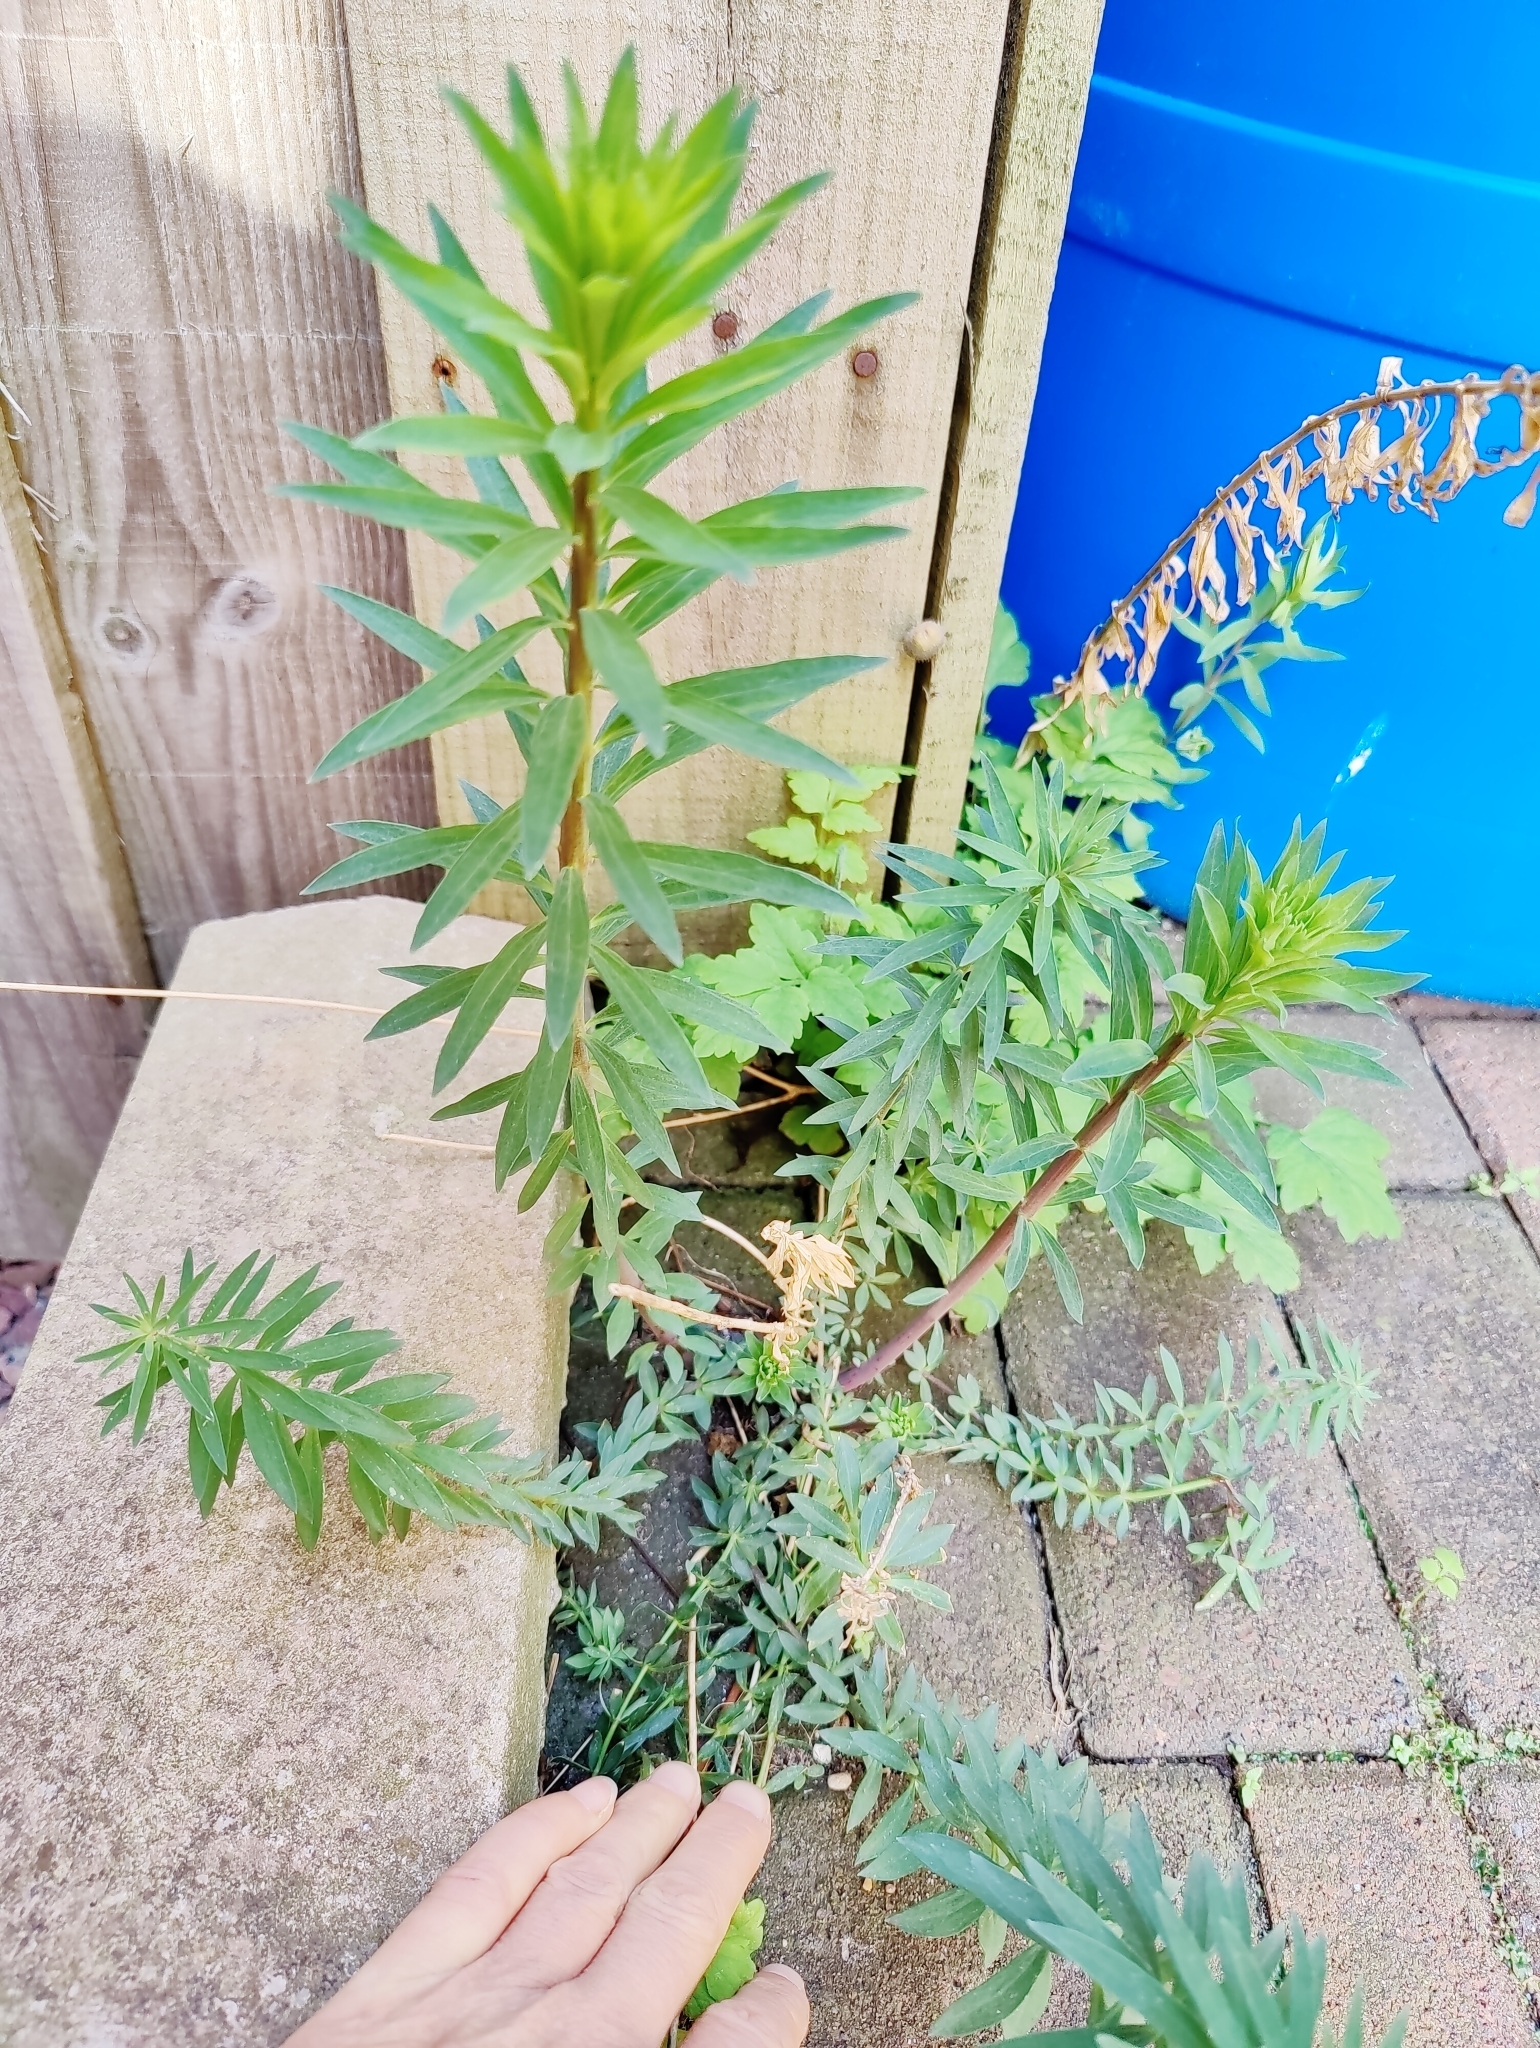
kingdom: Plantae
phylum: Tracheophyta
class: Magnoliopsida
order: Lamiales
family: Plantaginaceae
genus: Linaria
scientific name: Linaria purpurea
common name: Purple toadflax
